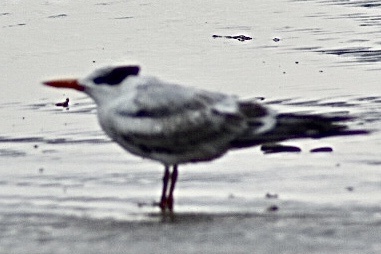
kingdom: Animalia
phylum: Chordata
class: Aves
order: Charadriiformes
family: Laridae
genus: Thalasseus
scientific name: Thalasseus maximus
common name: Royal tern
